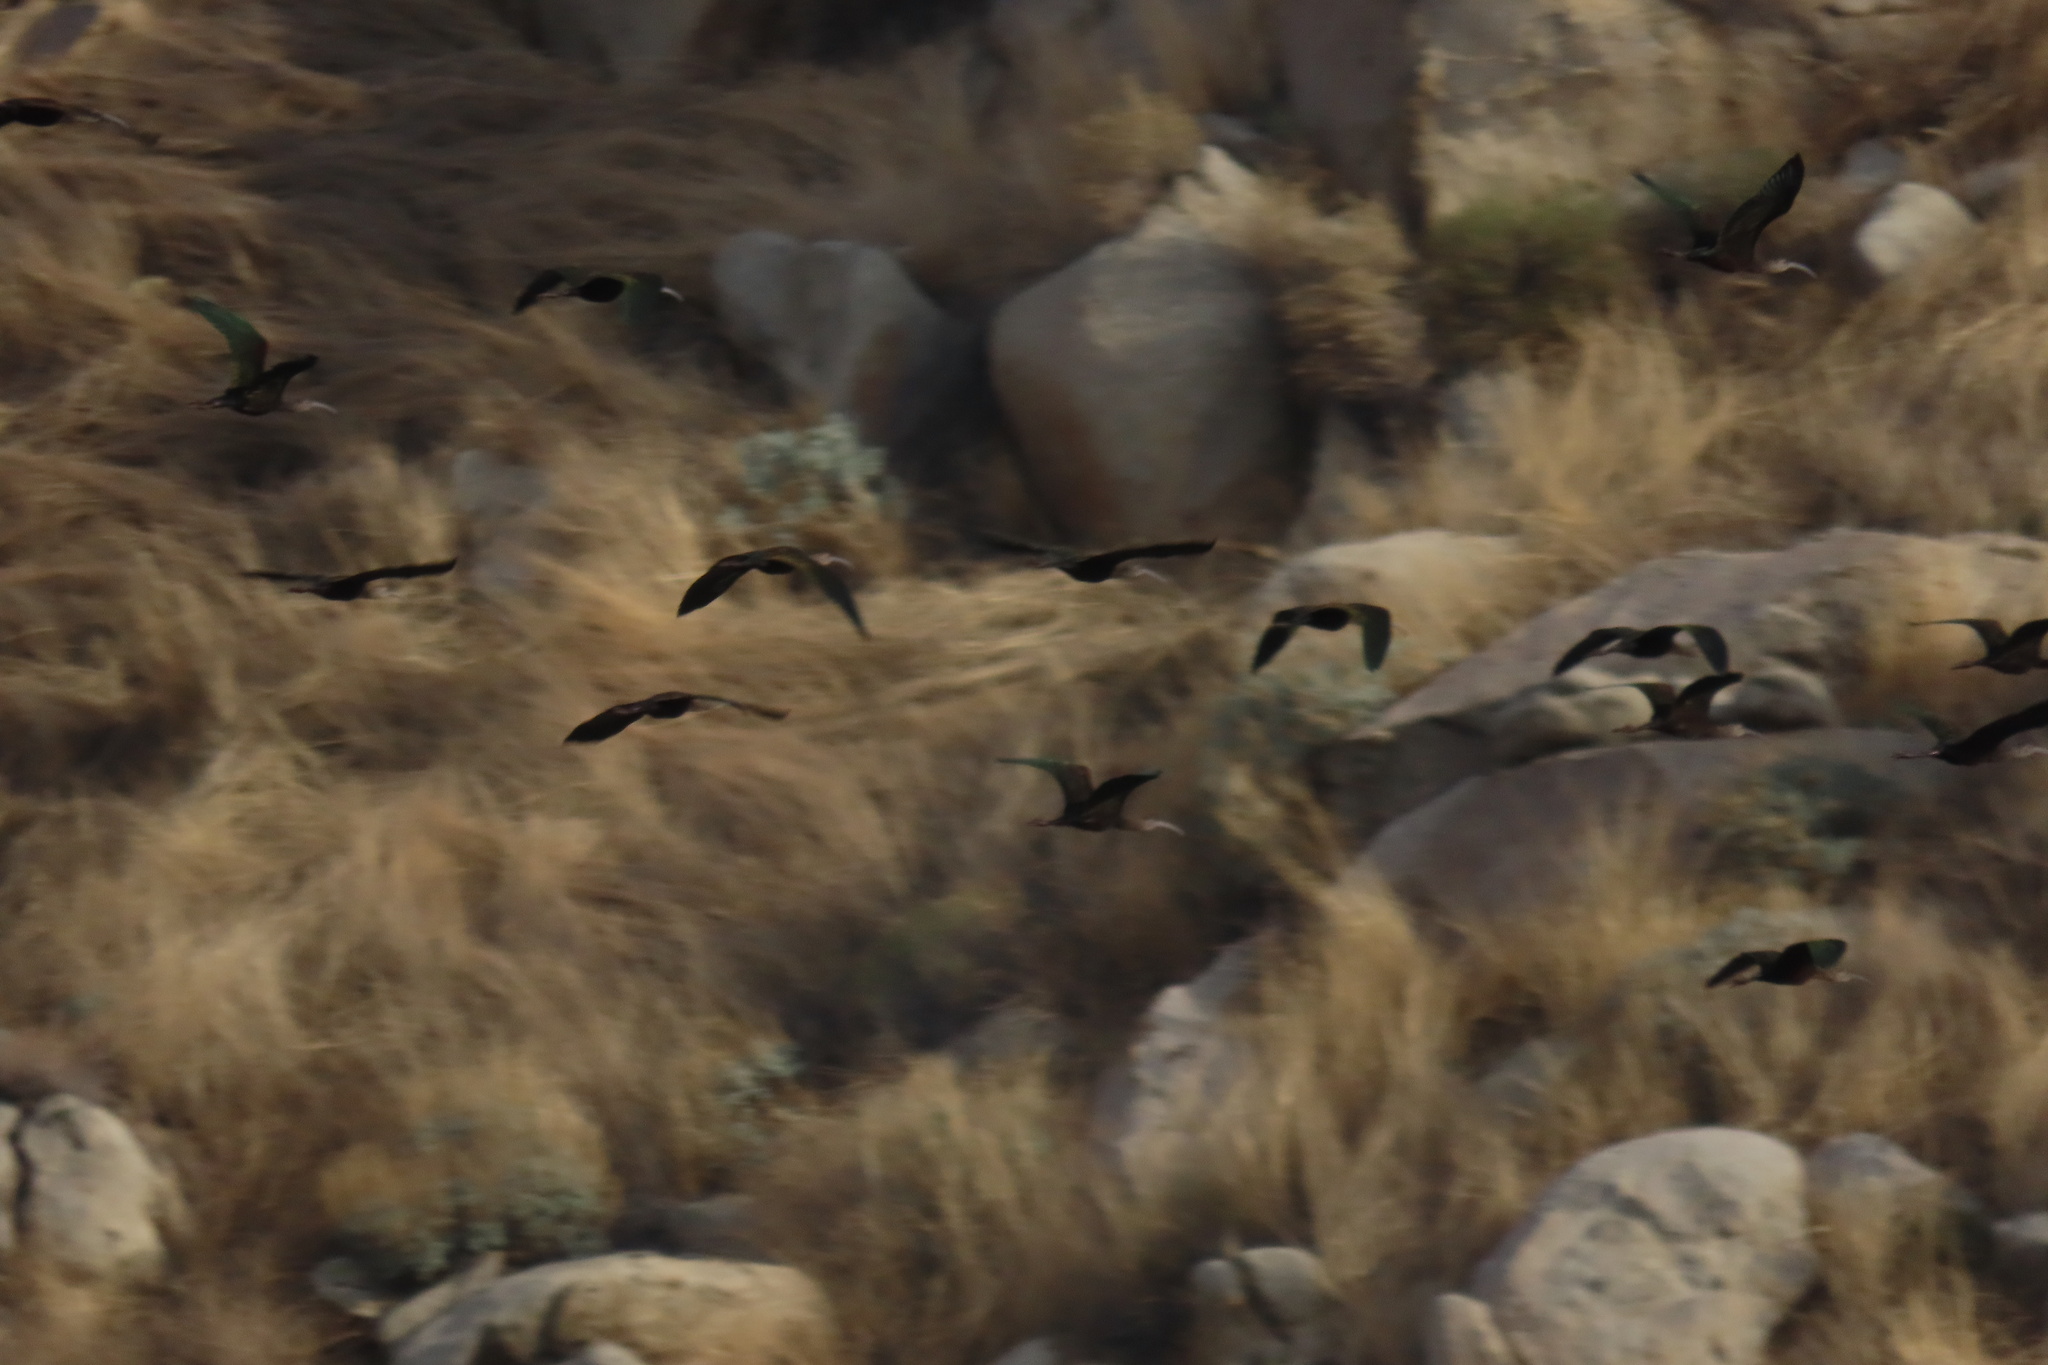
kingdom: Animalia
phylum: Chordata
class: Aves
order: Pelecaniformes
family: Threskiornithidae
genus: Plegadis
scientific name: Plegadis chihi
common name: White-faced ibis
